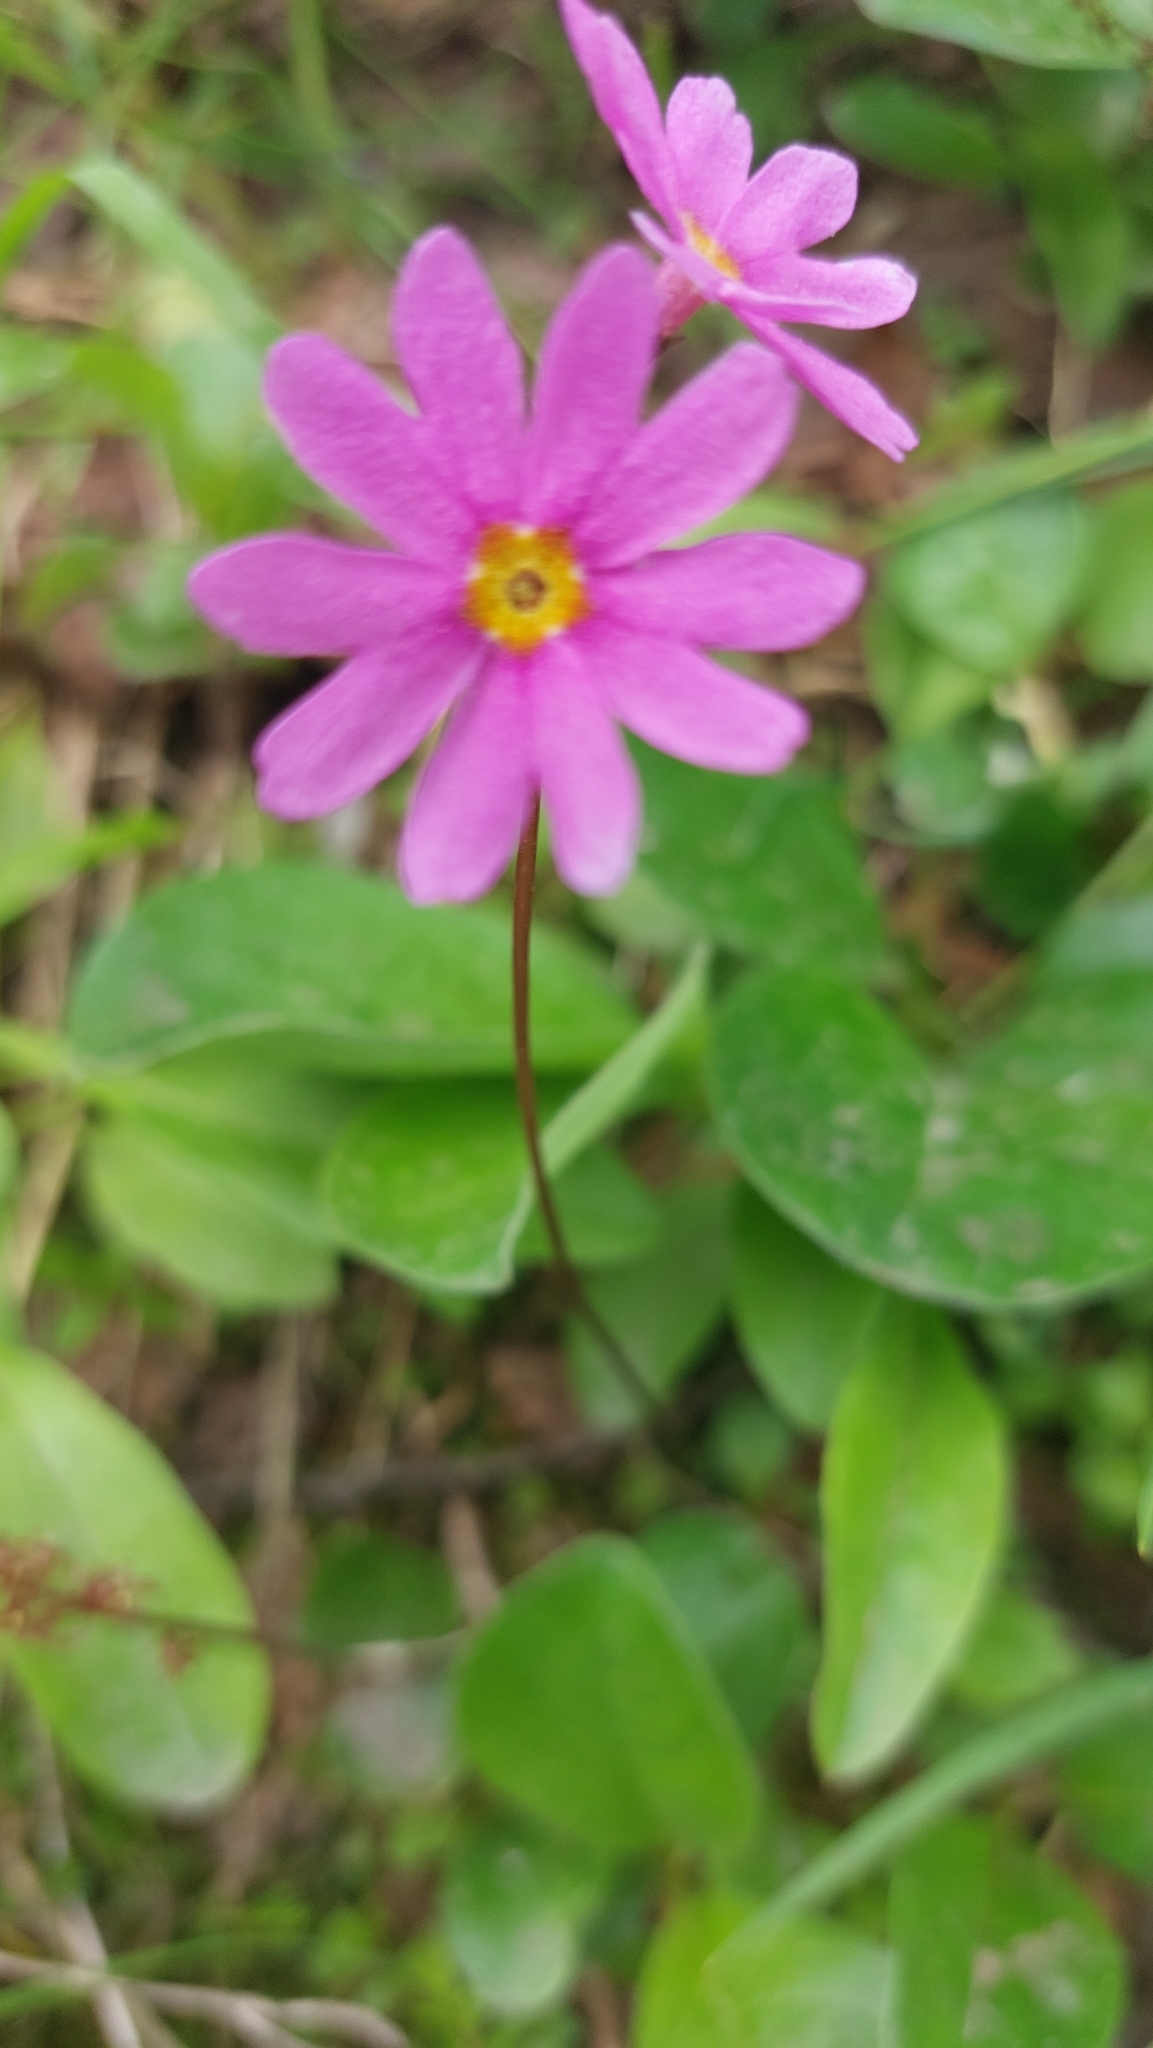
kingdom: Plantae
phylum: Tracheophyta
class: Magnoliopsida
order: Ericales
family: Primulaceae
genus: Primula
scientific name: Primula cuneifolia
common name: Wedge-leaved primrose
